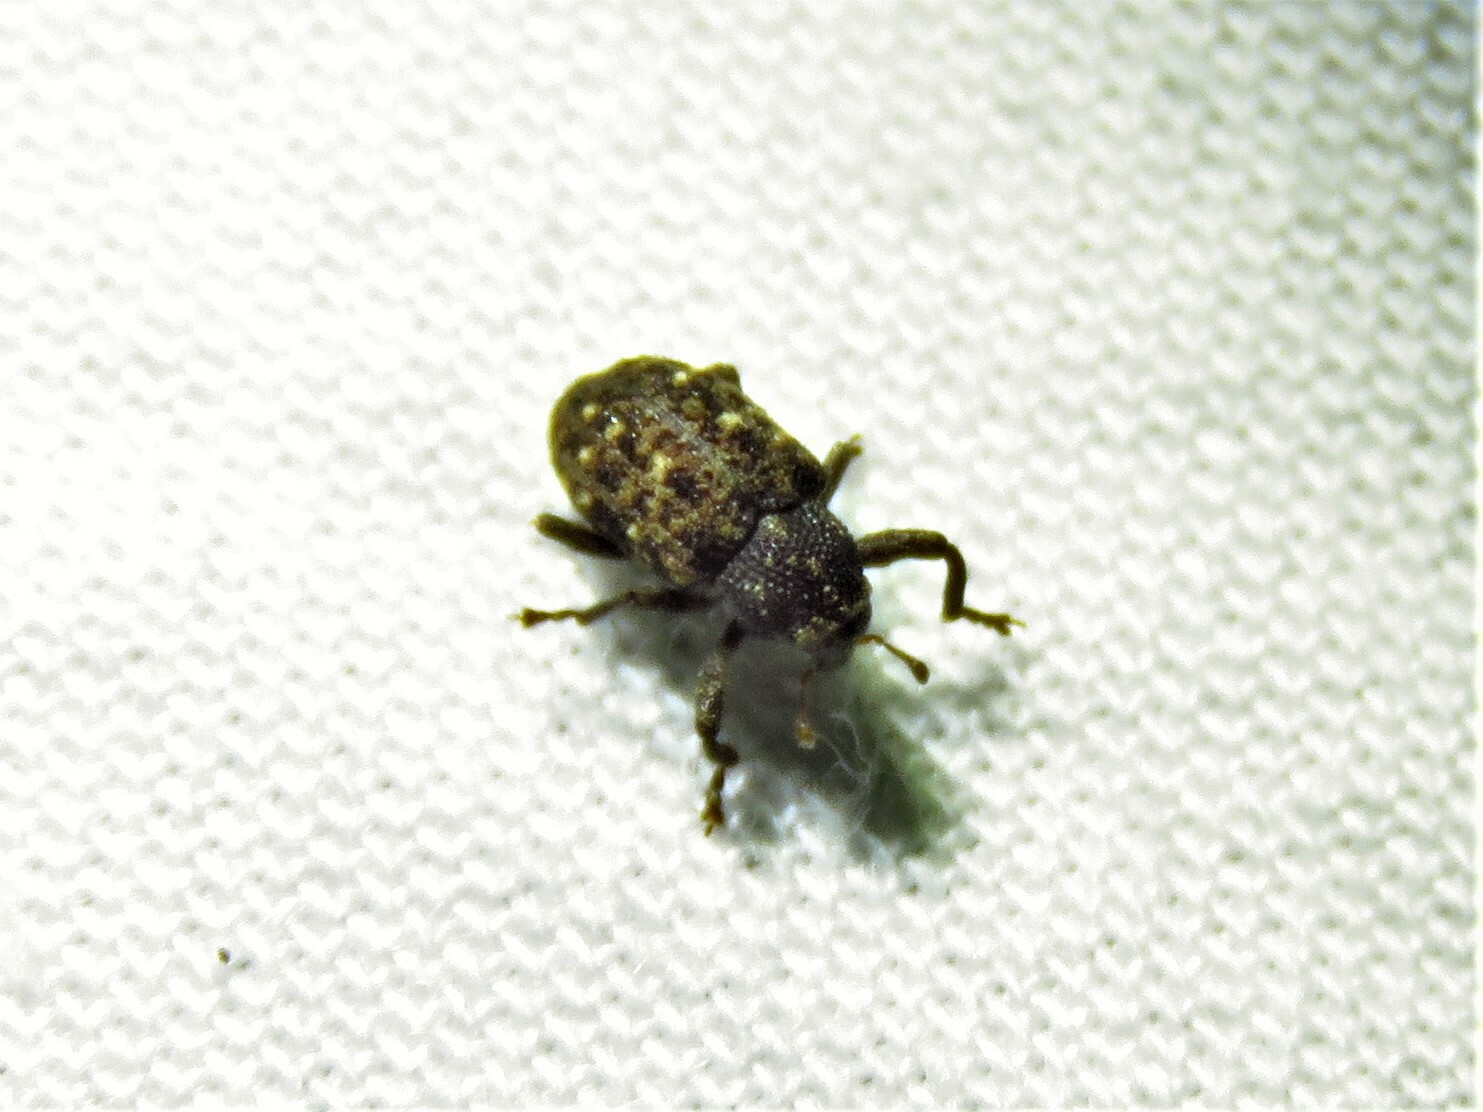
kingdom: Animalia
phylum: Arthropoda
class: Insecta
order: Coleoptera
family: Curculionidae
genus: Apteromechus
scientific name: Apteromechus ferratus
